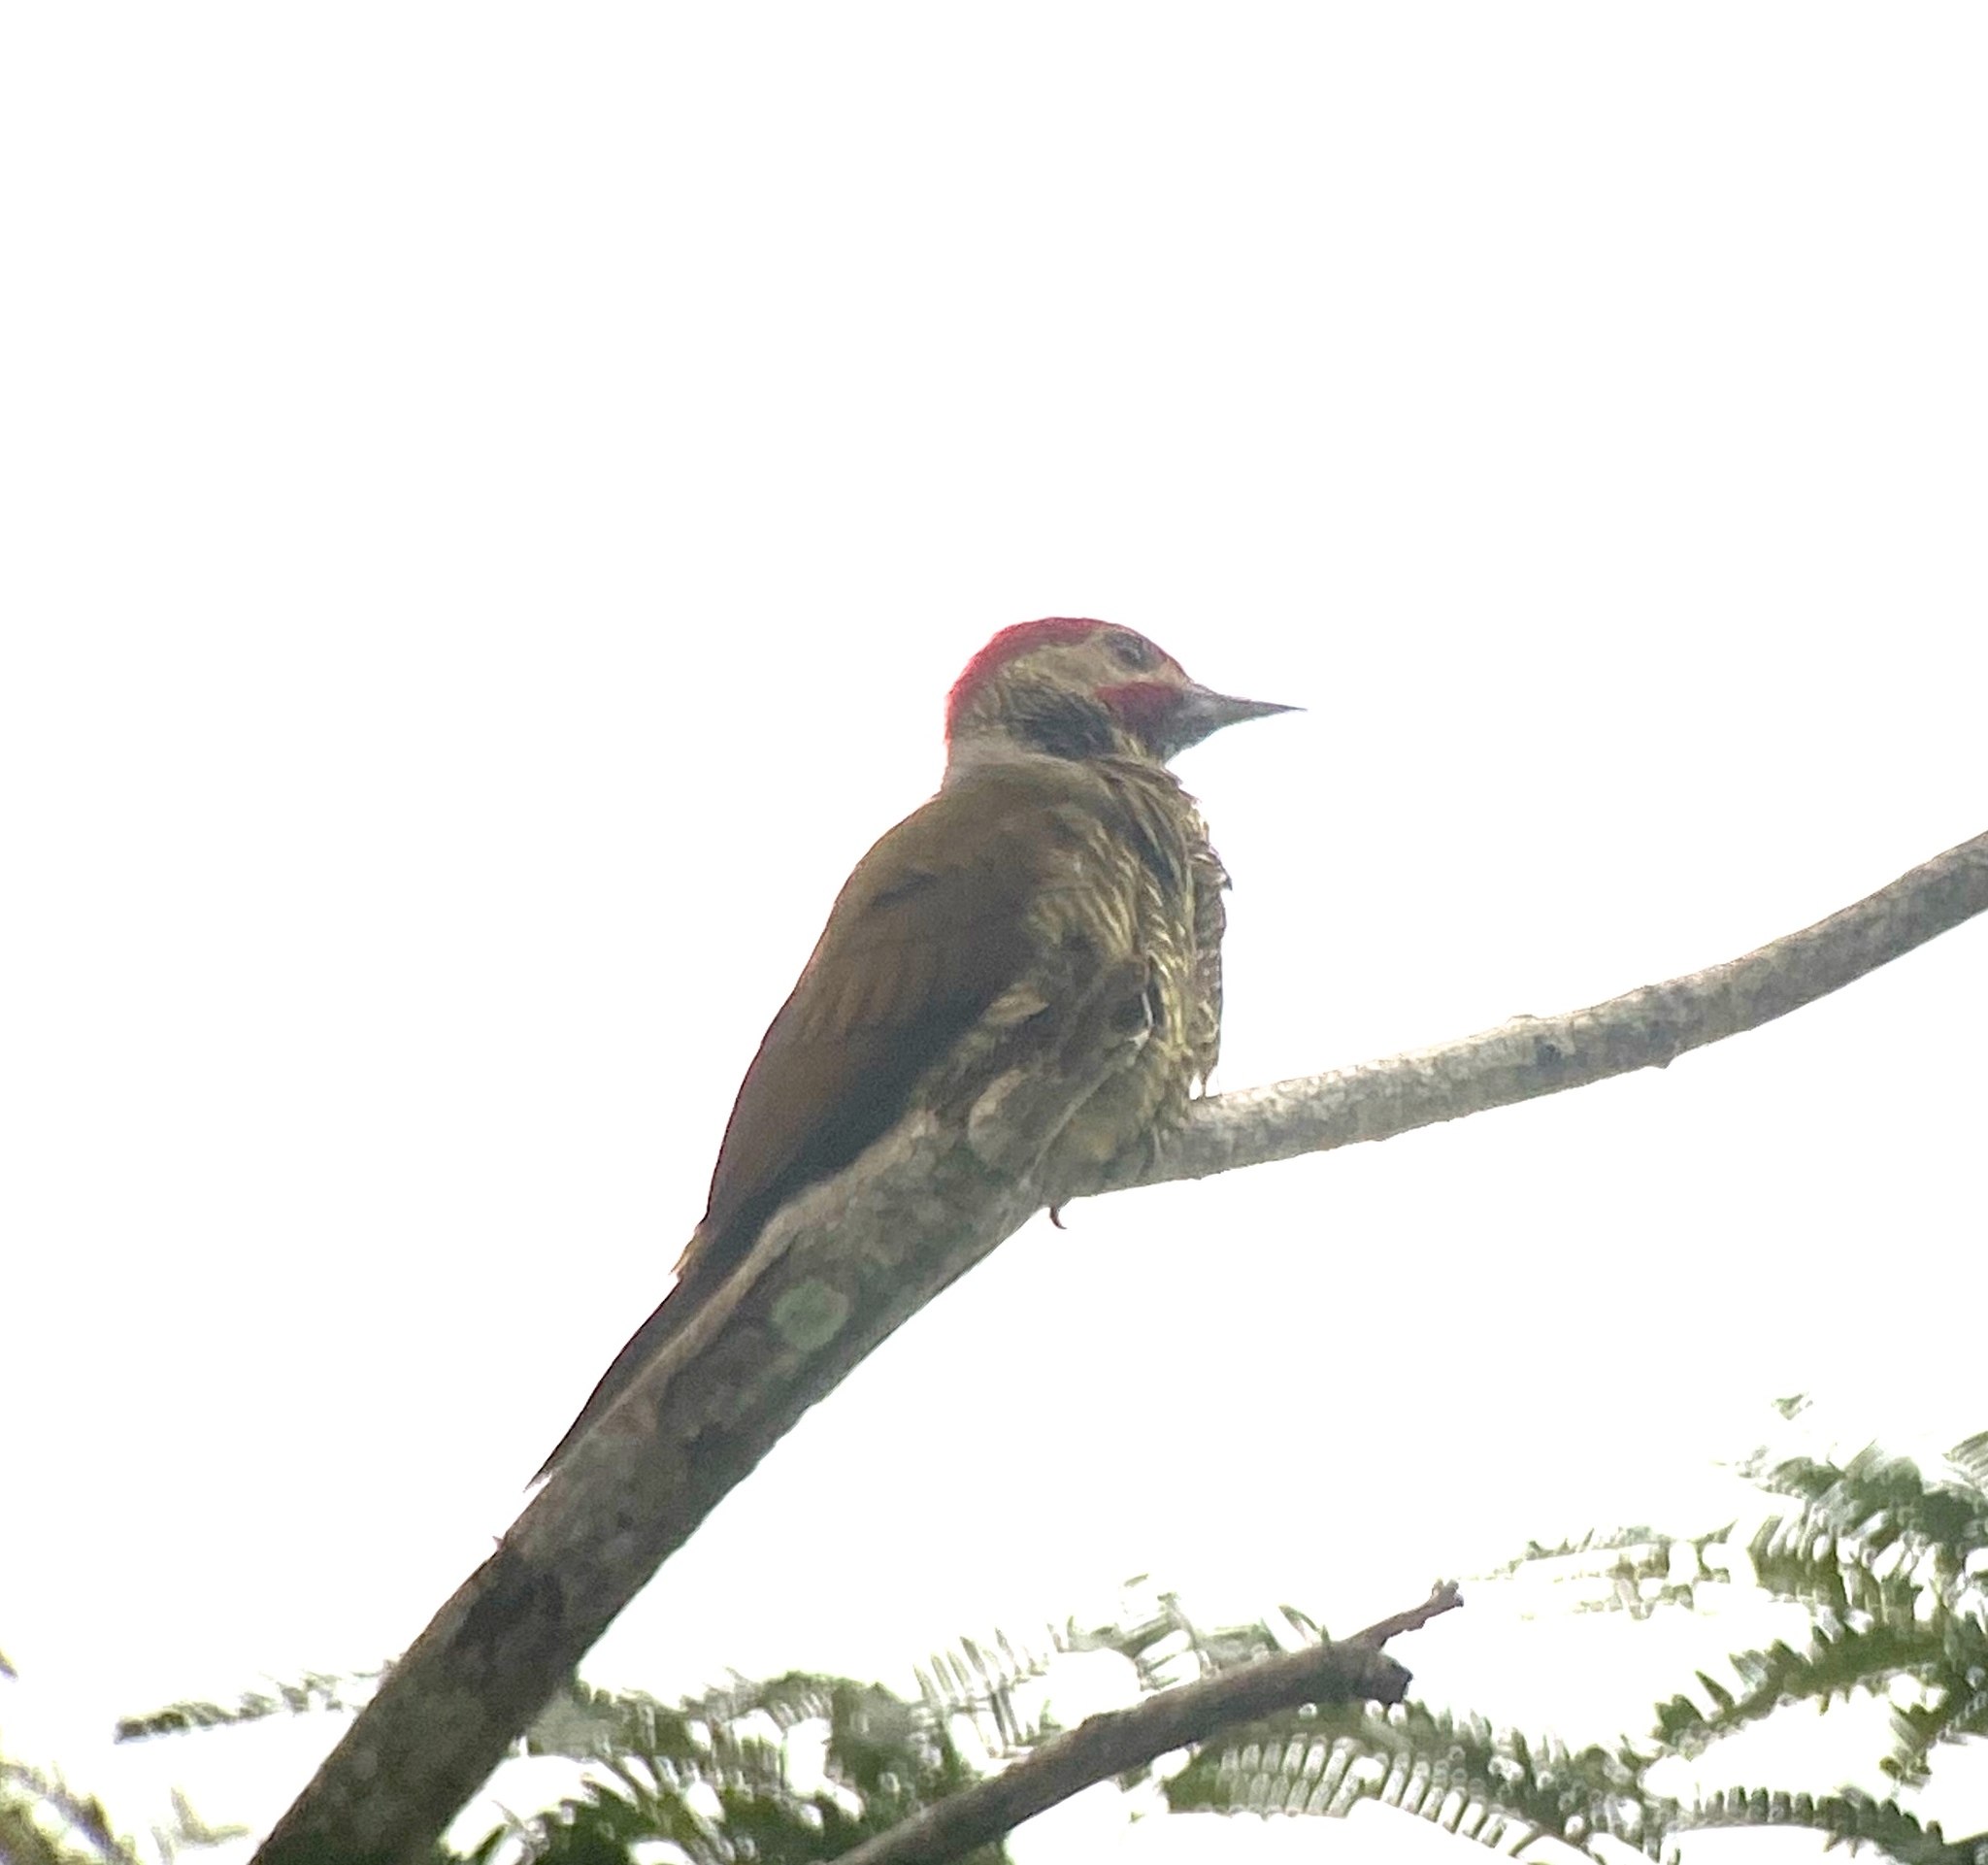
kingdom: Animalia
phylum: Chordata
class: Aves
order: Piciformes
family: Picidae
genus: Colaptes
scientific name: Colaptes rubiginosus
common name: Golden-olive woodpecker
